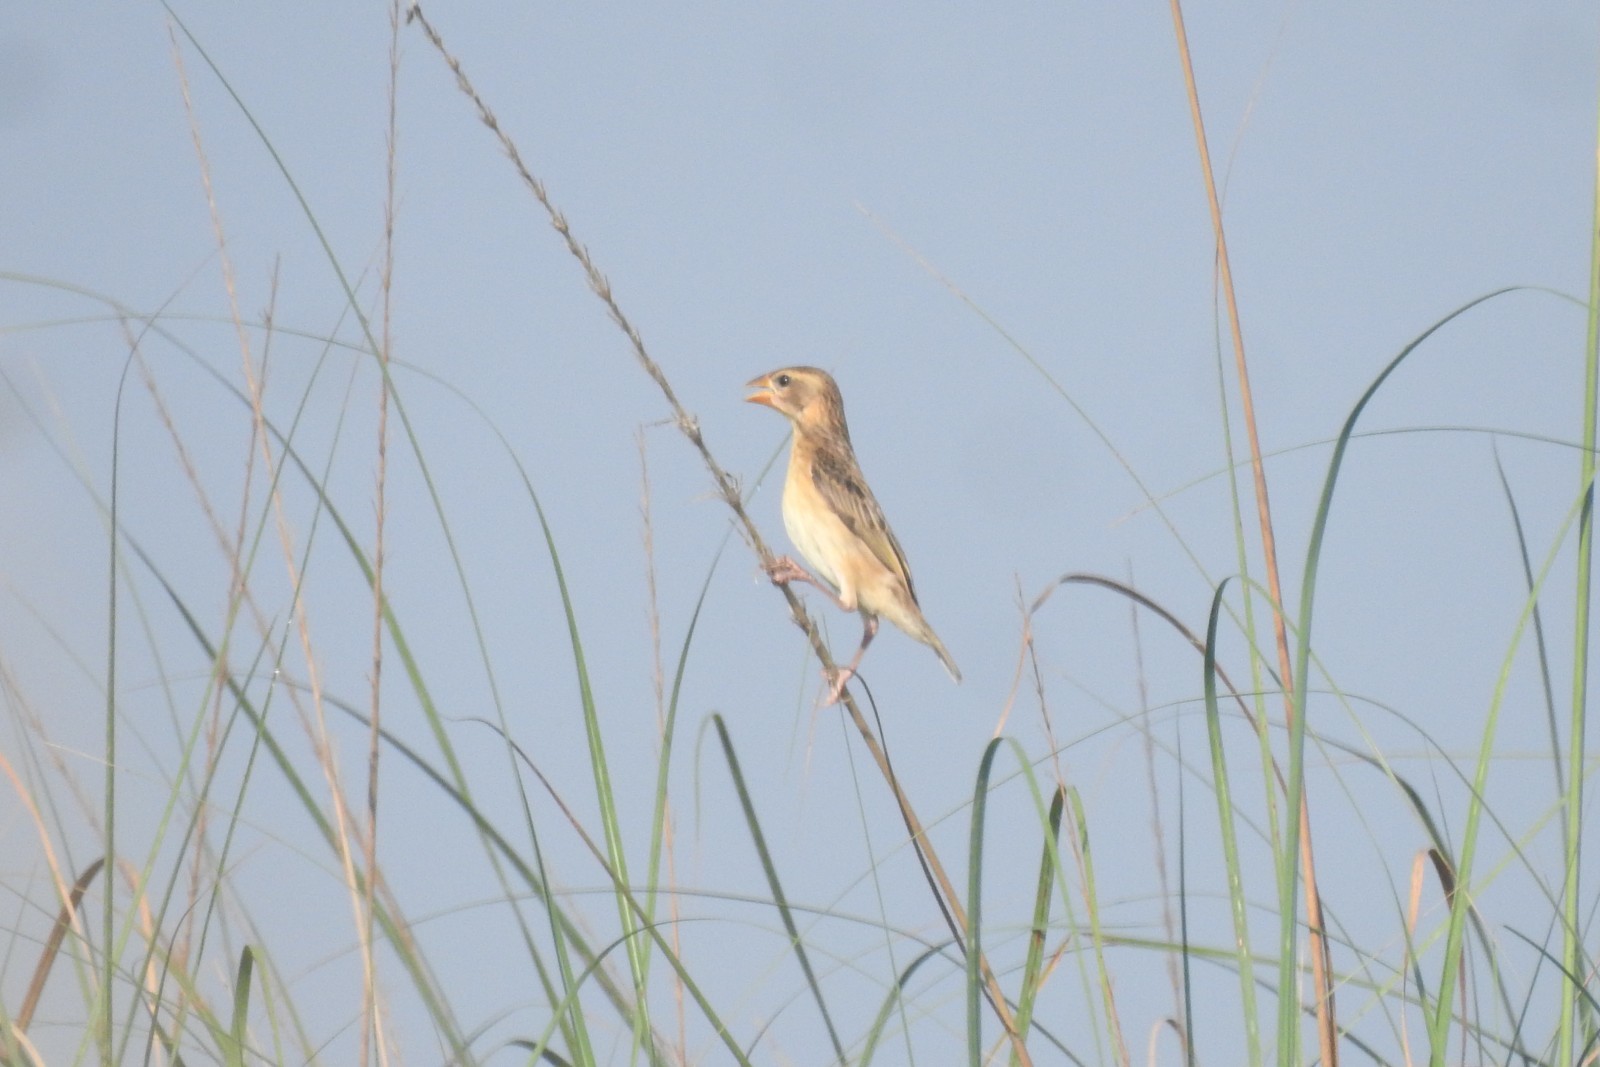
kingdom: Animalia
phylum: Chordata
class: Aves
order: Passeriformes
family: Ploceidae
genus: Ploceus
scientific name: Ploceus philippinus
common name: Baya weaver
